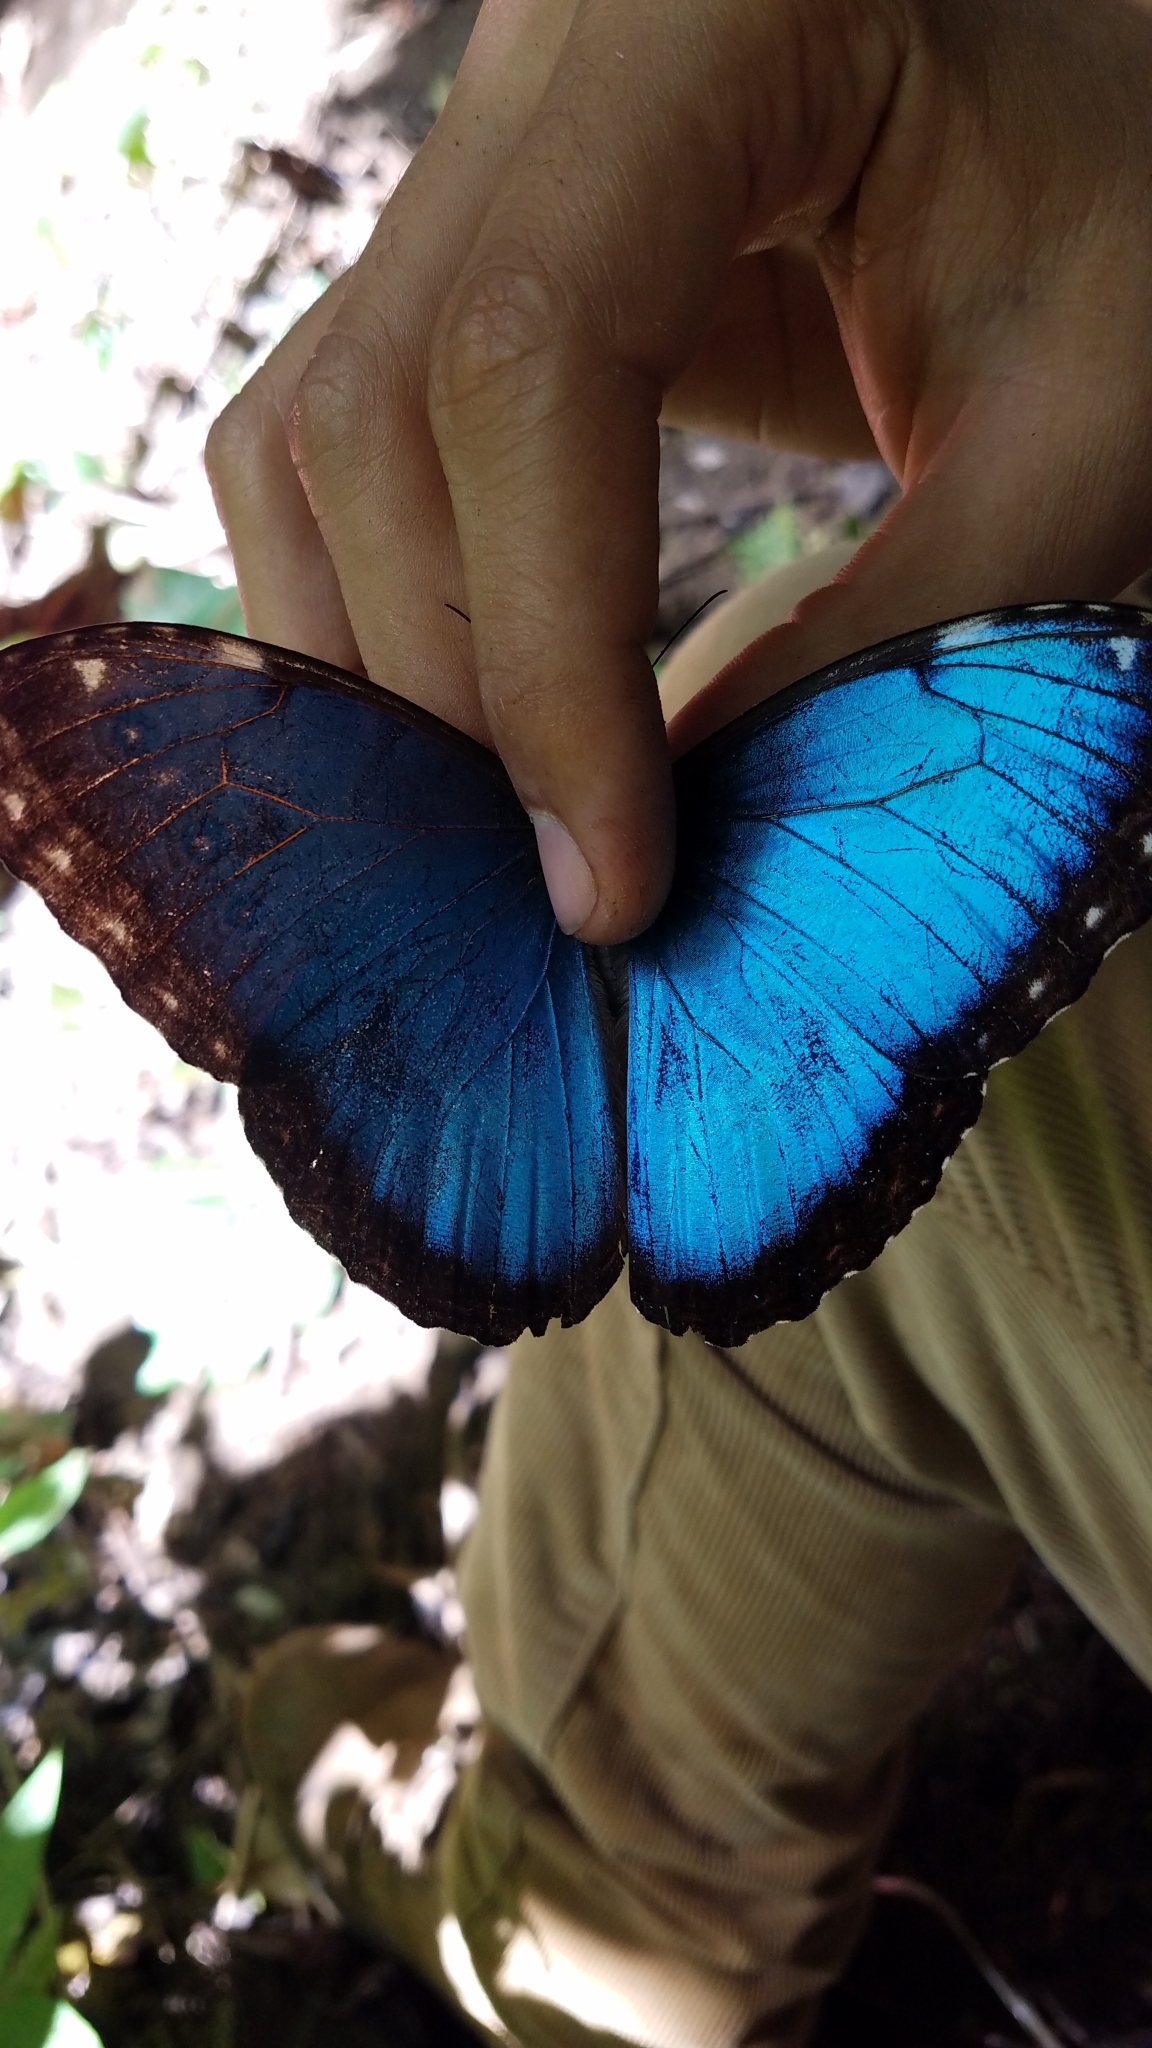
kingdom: Animalia
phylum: Arthropoda
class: Insecta
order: Lepidoptera
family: Nymphalidae
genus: Morpho
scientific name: Morpho helenor
